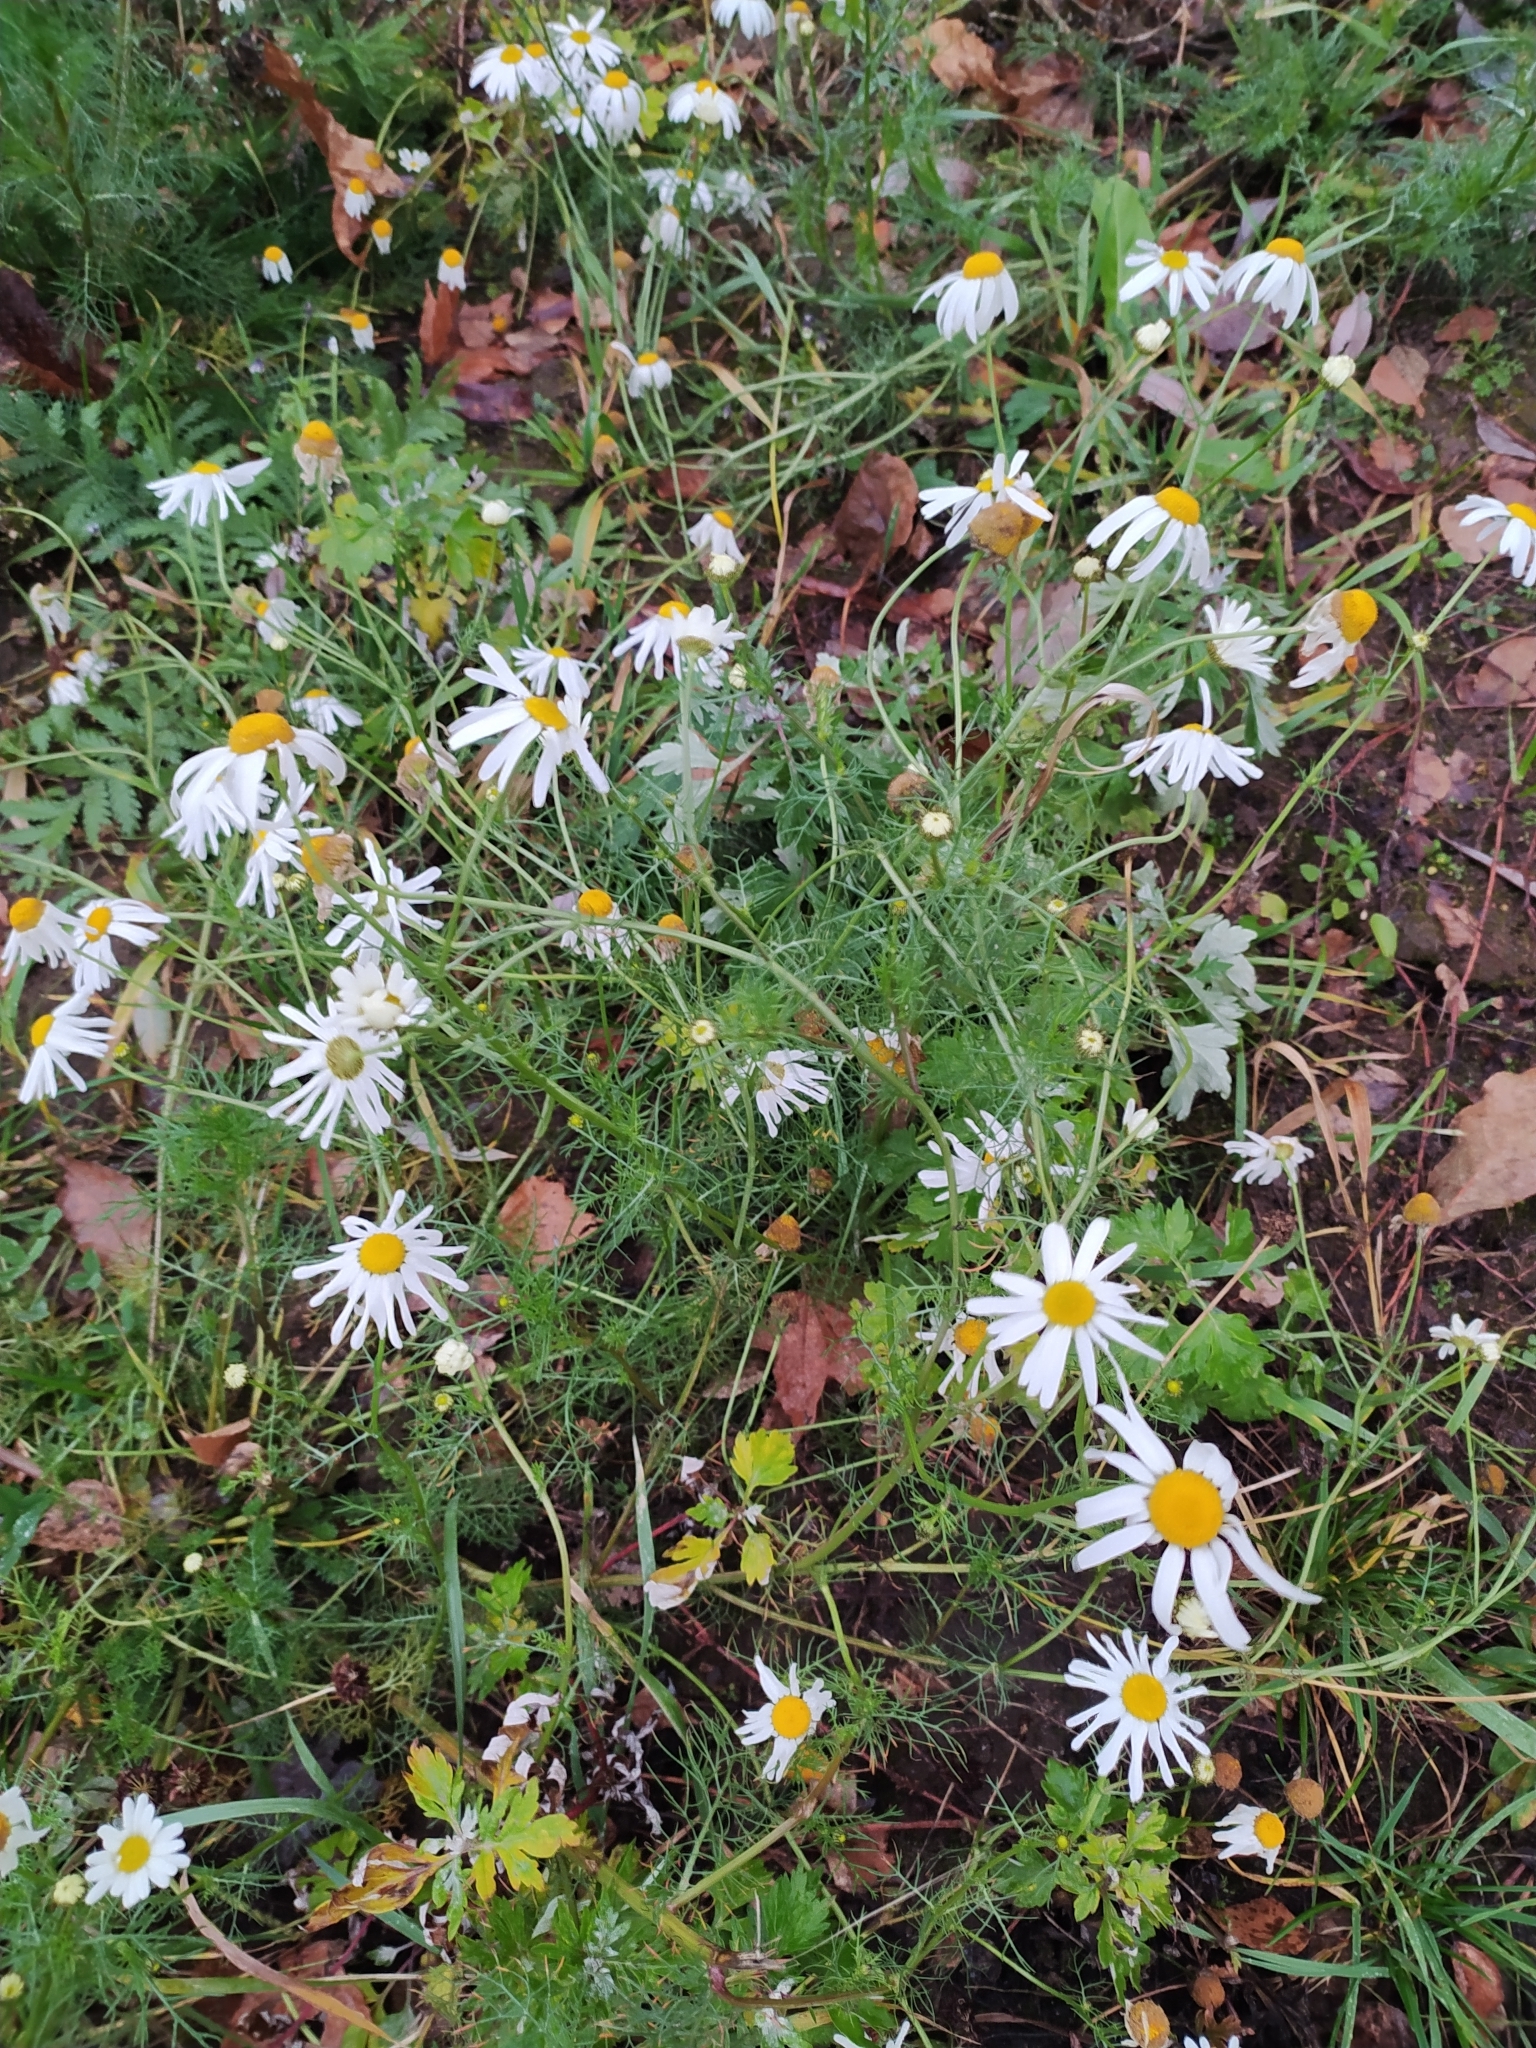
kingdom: Plantae
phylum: Tracheophyta
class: Magnoliopsida
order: Asterales
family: Asteraceae
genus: Tripleurospermum
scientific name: Tripleurospermum inodorum
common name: Scentless mayweed
